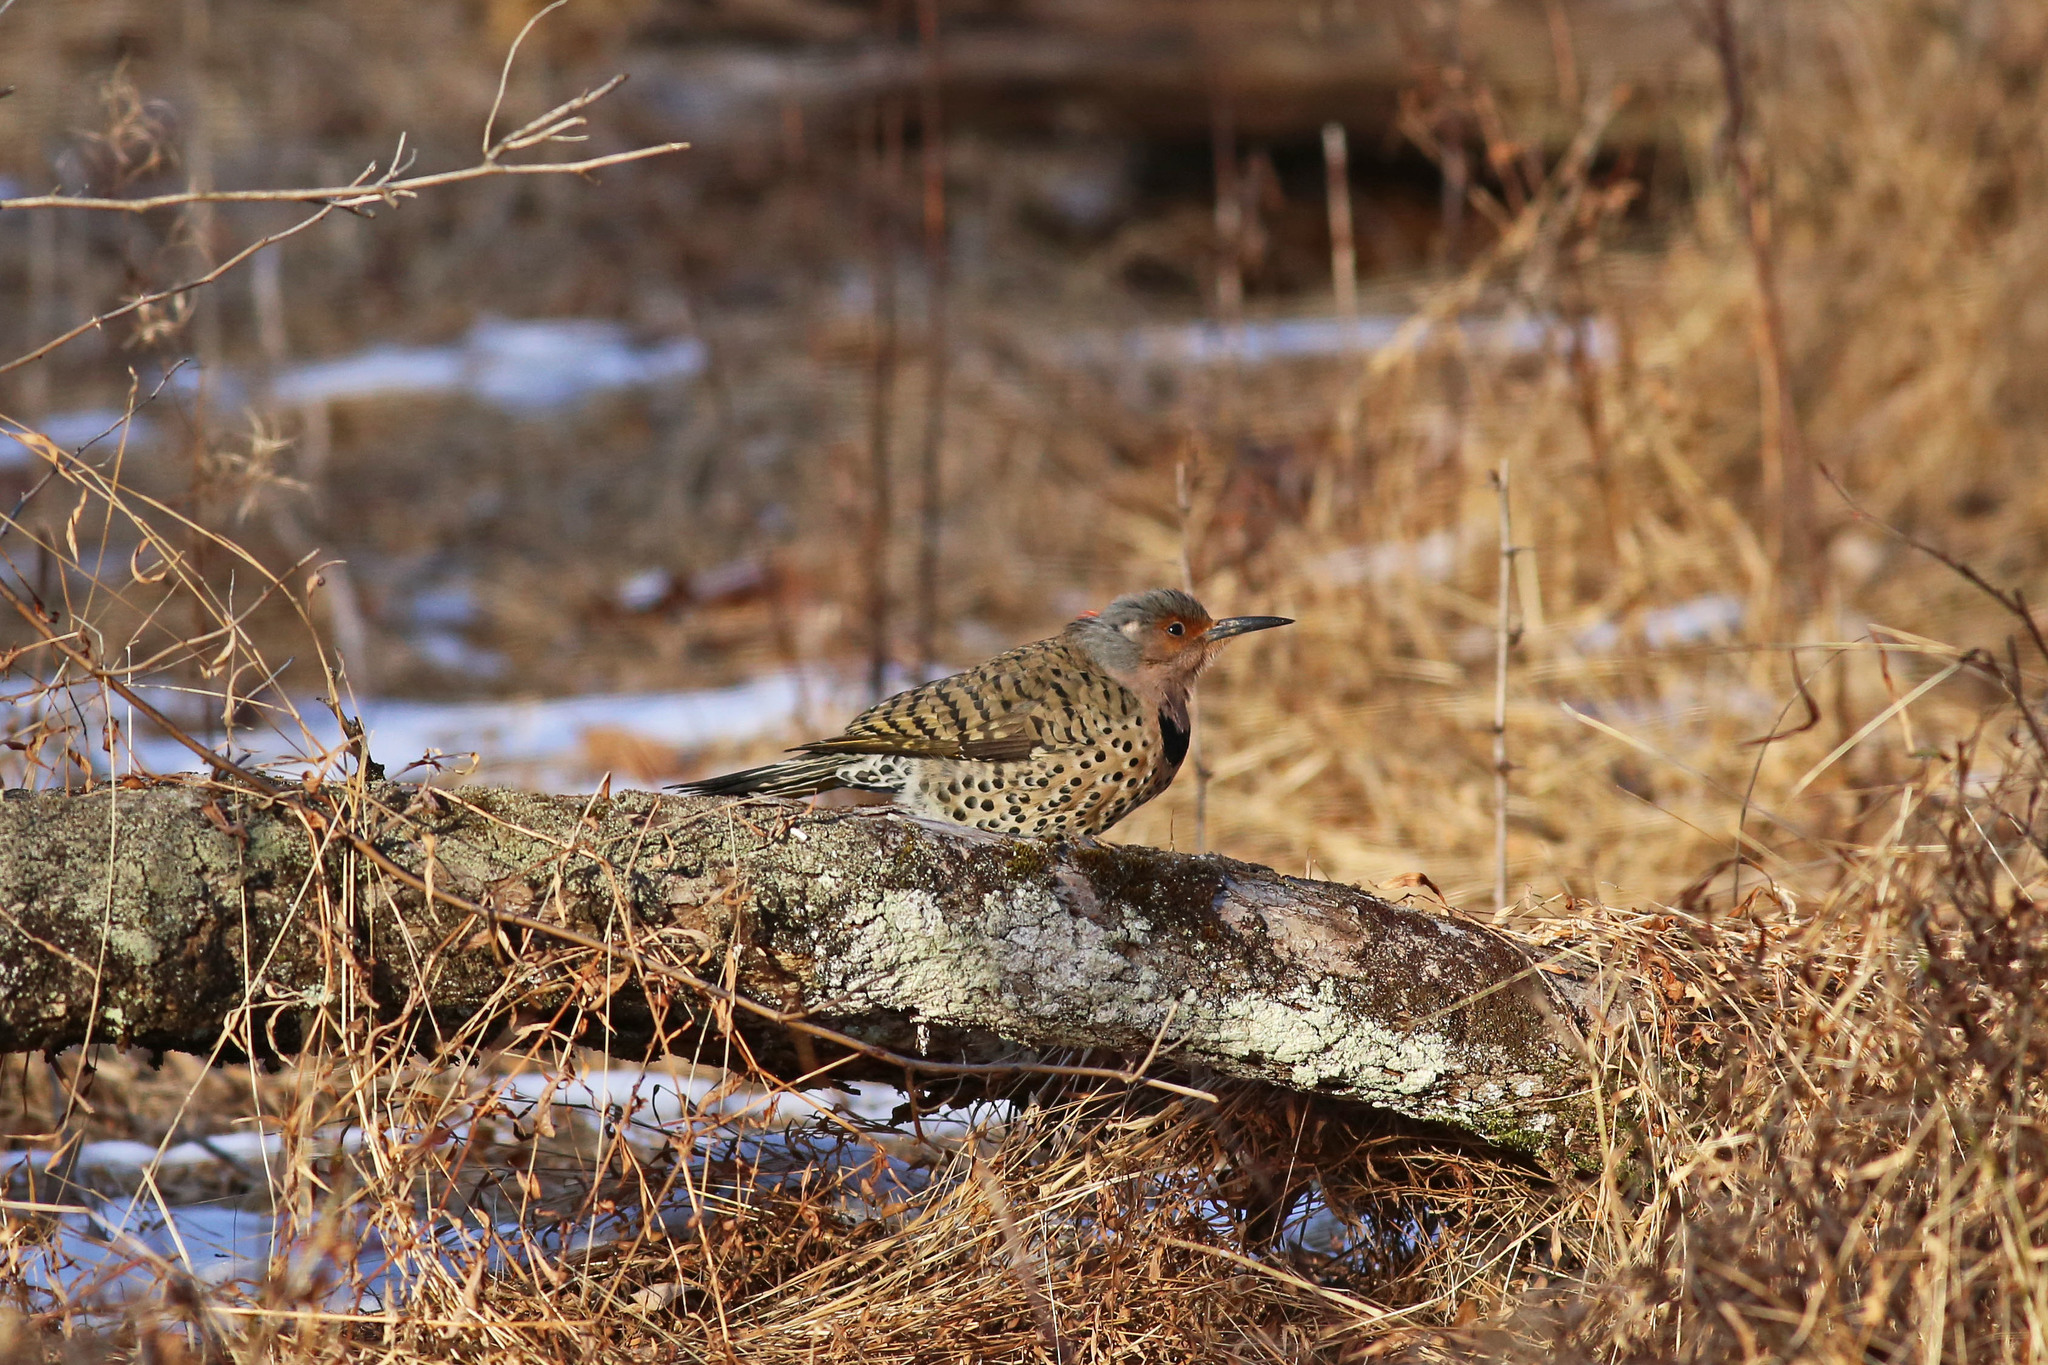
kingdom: Animalia
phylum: Chordata
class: Aves
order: Piciformes
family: Picidae
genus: Colaptes
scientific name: Colaptes auratus
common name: Northern flicker
